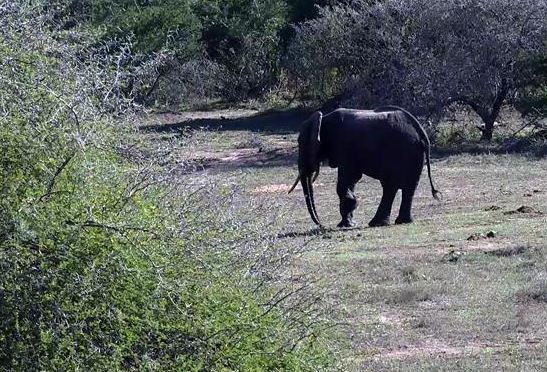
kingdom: Animalia
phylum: Chordata
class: Mammalia
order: Proboscidea
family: Elephantidae
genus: Loxodonta
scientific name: Loxodonta africana
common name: African elephant
